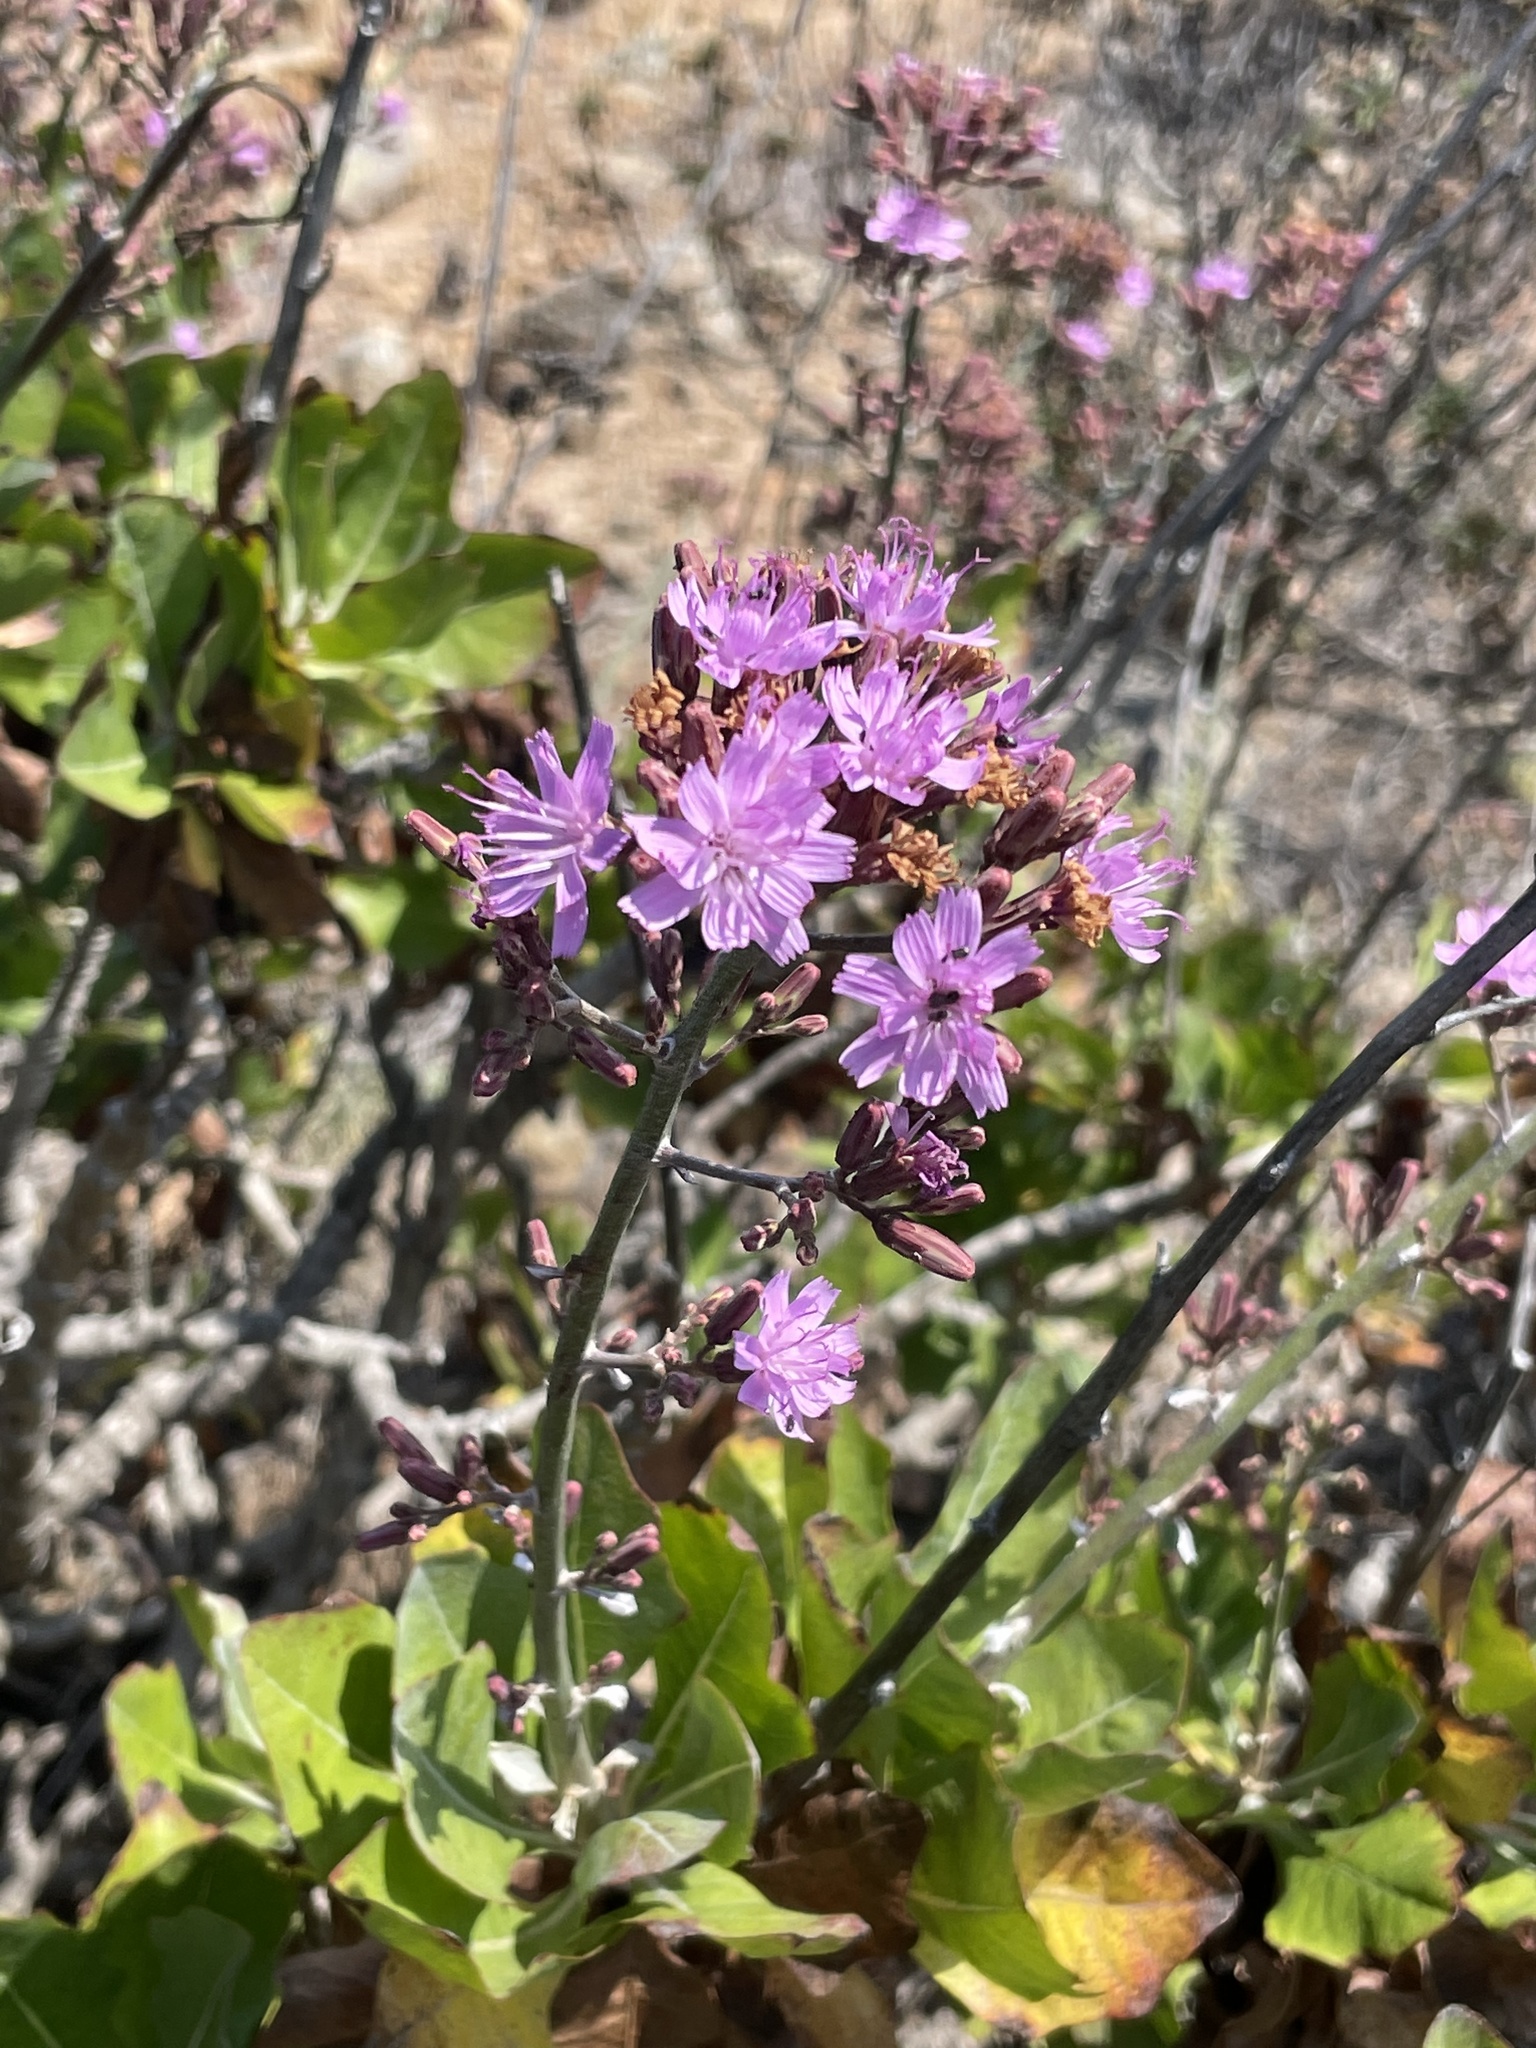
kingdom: Plantae
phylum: Tracheophyta
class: Magnoliopsida
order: Asterales
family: Asteraceae
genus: Munzothamnus
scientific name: Munzothamnus blairii
